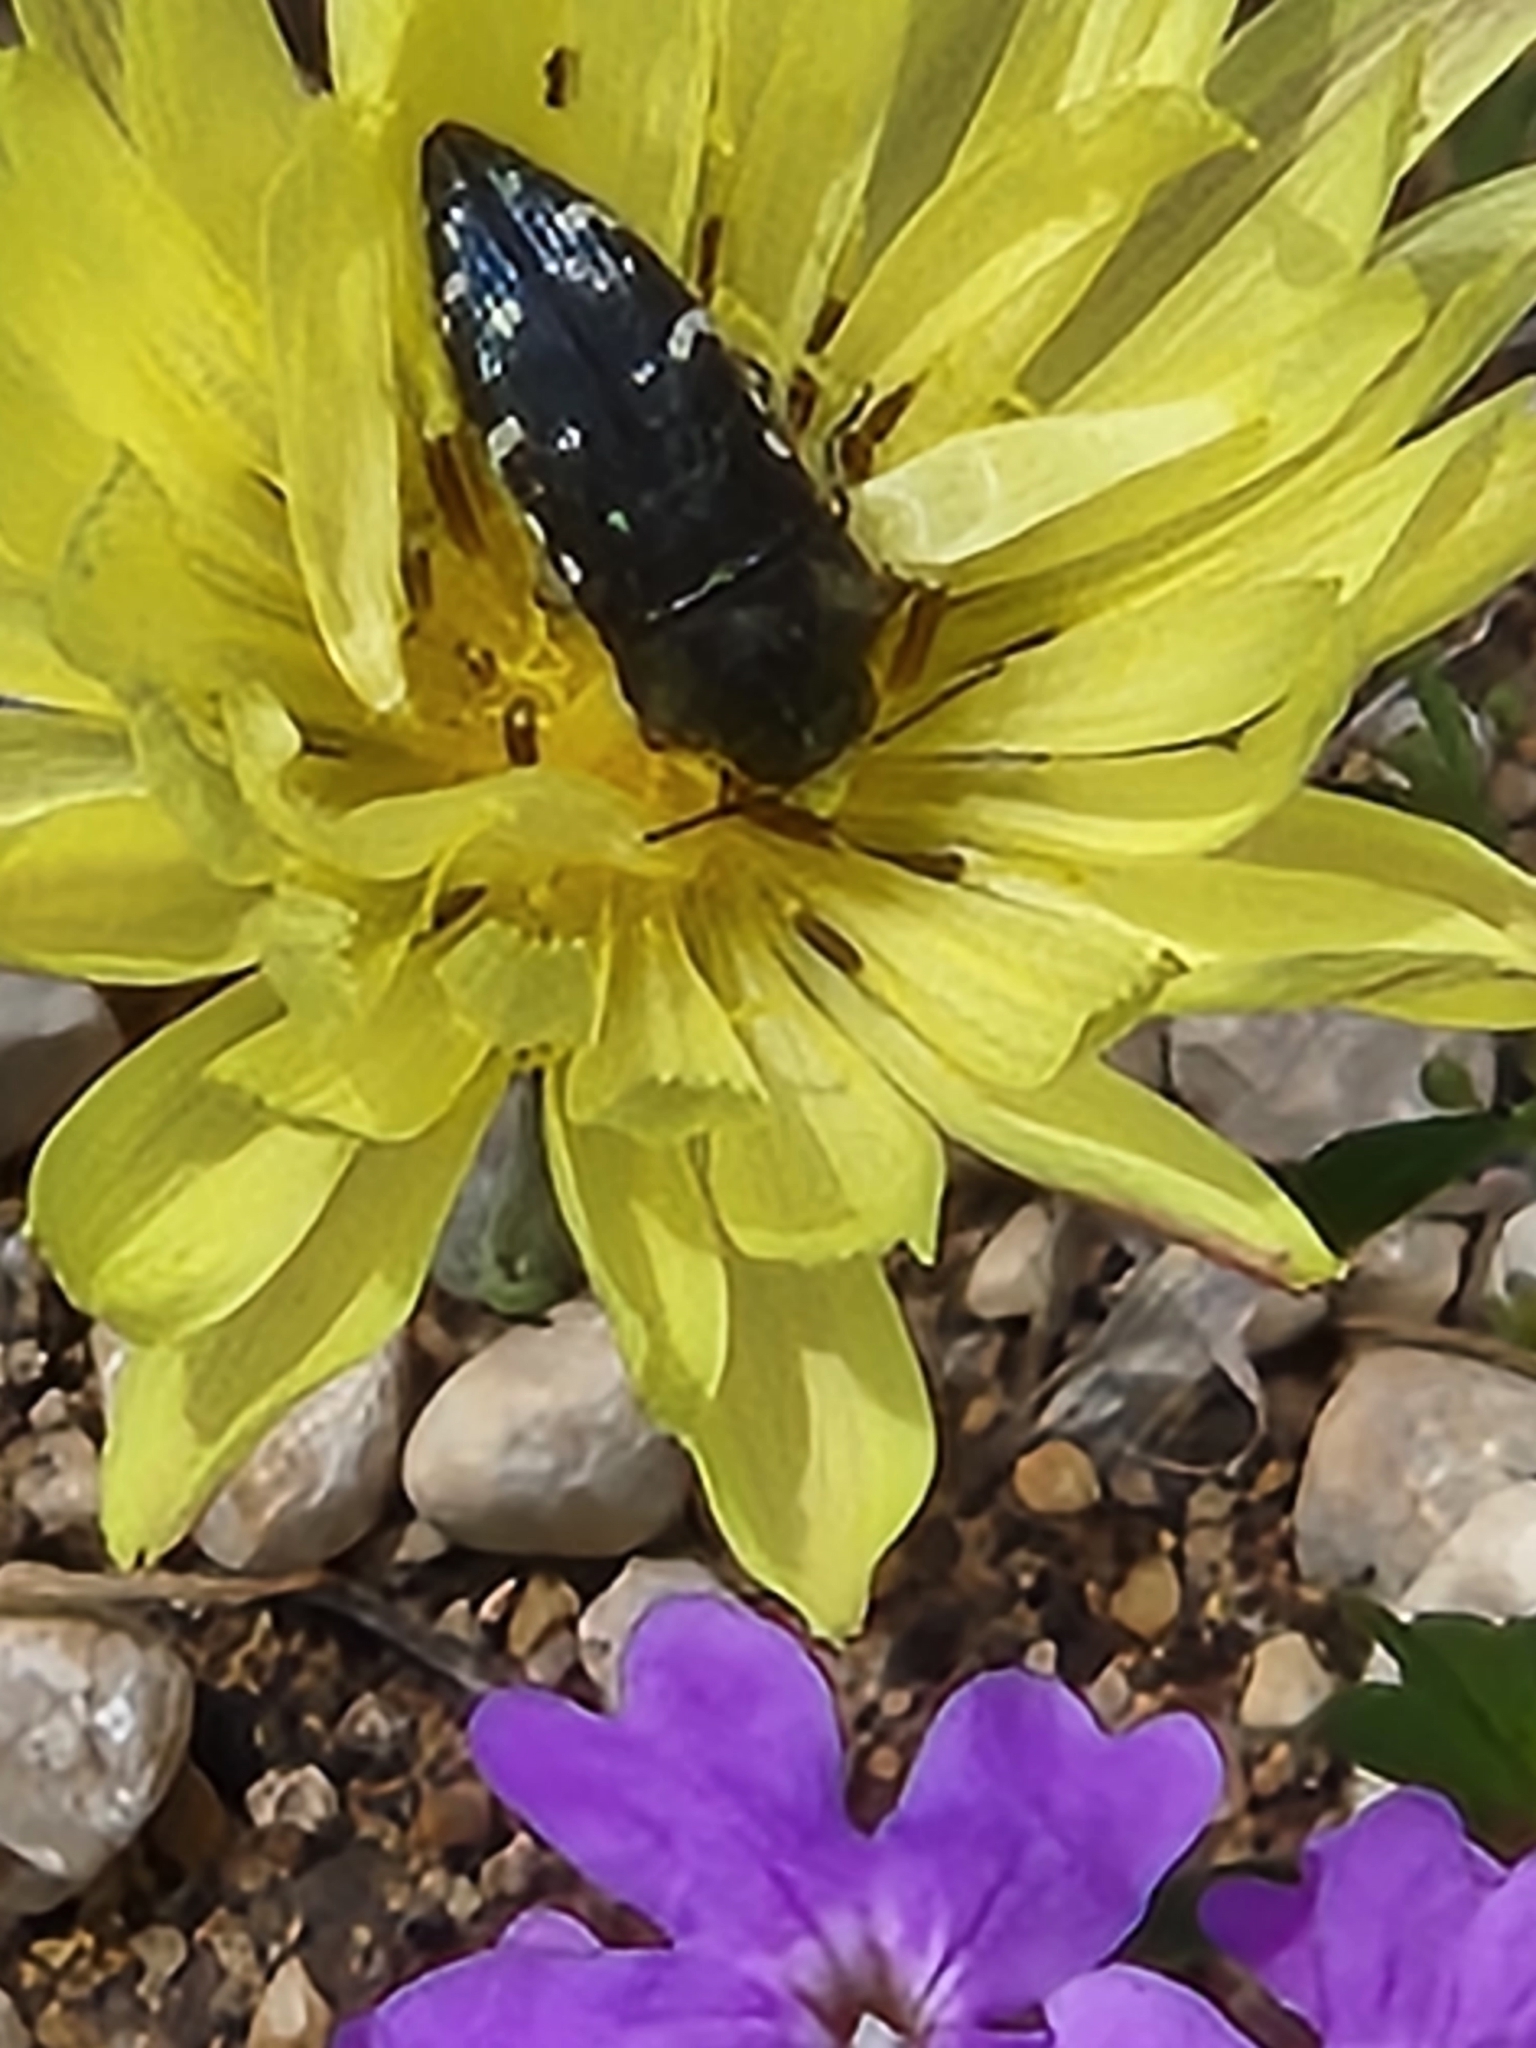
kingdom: Animalia
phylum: Arthropoda
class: Insecta
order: Coleoptera
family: Buprestidae
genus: Acmaeodera
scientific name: Acmaeodera ornatoides
